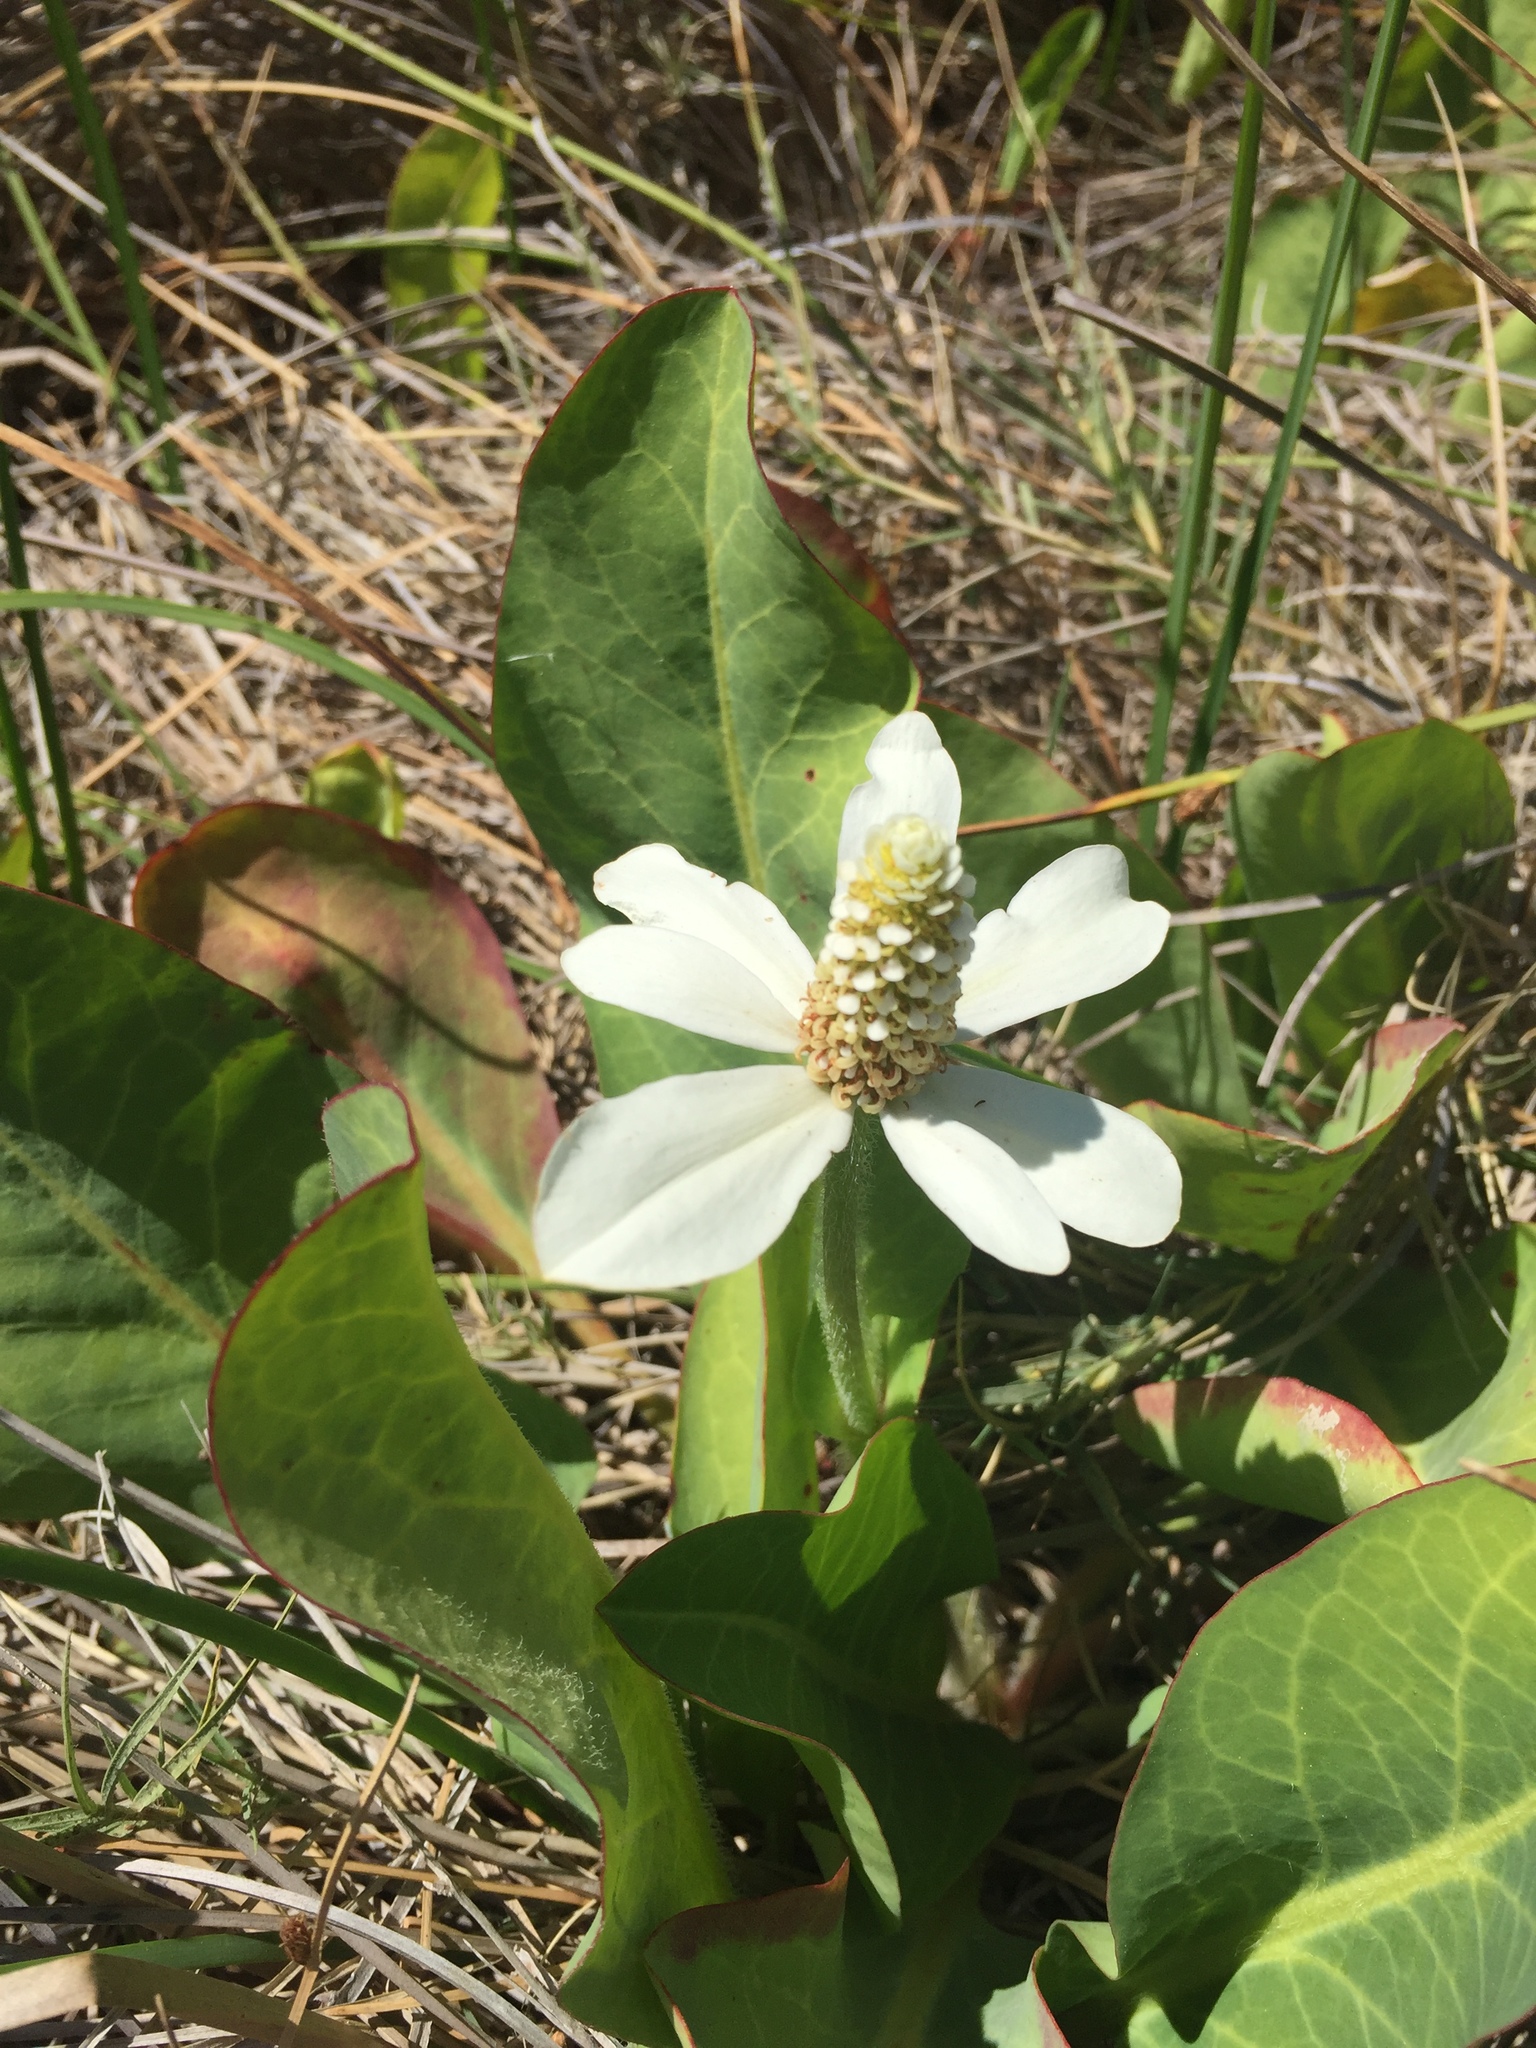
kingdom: Plantae
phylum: Tracheophyta
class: Magnoliopsida
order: Piperales
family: Saururaceae
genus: Anemopsis
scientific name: Anemopsis californica
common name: Apache-beads
